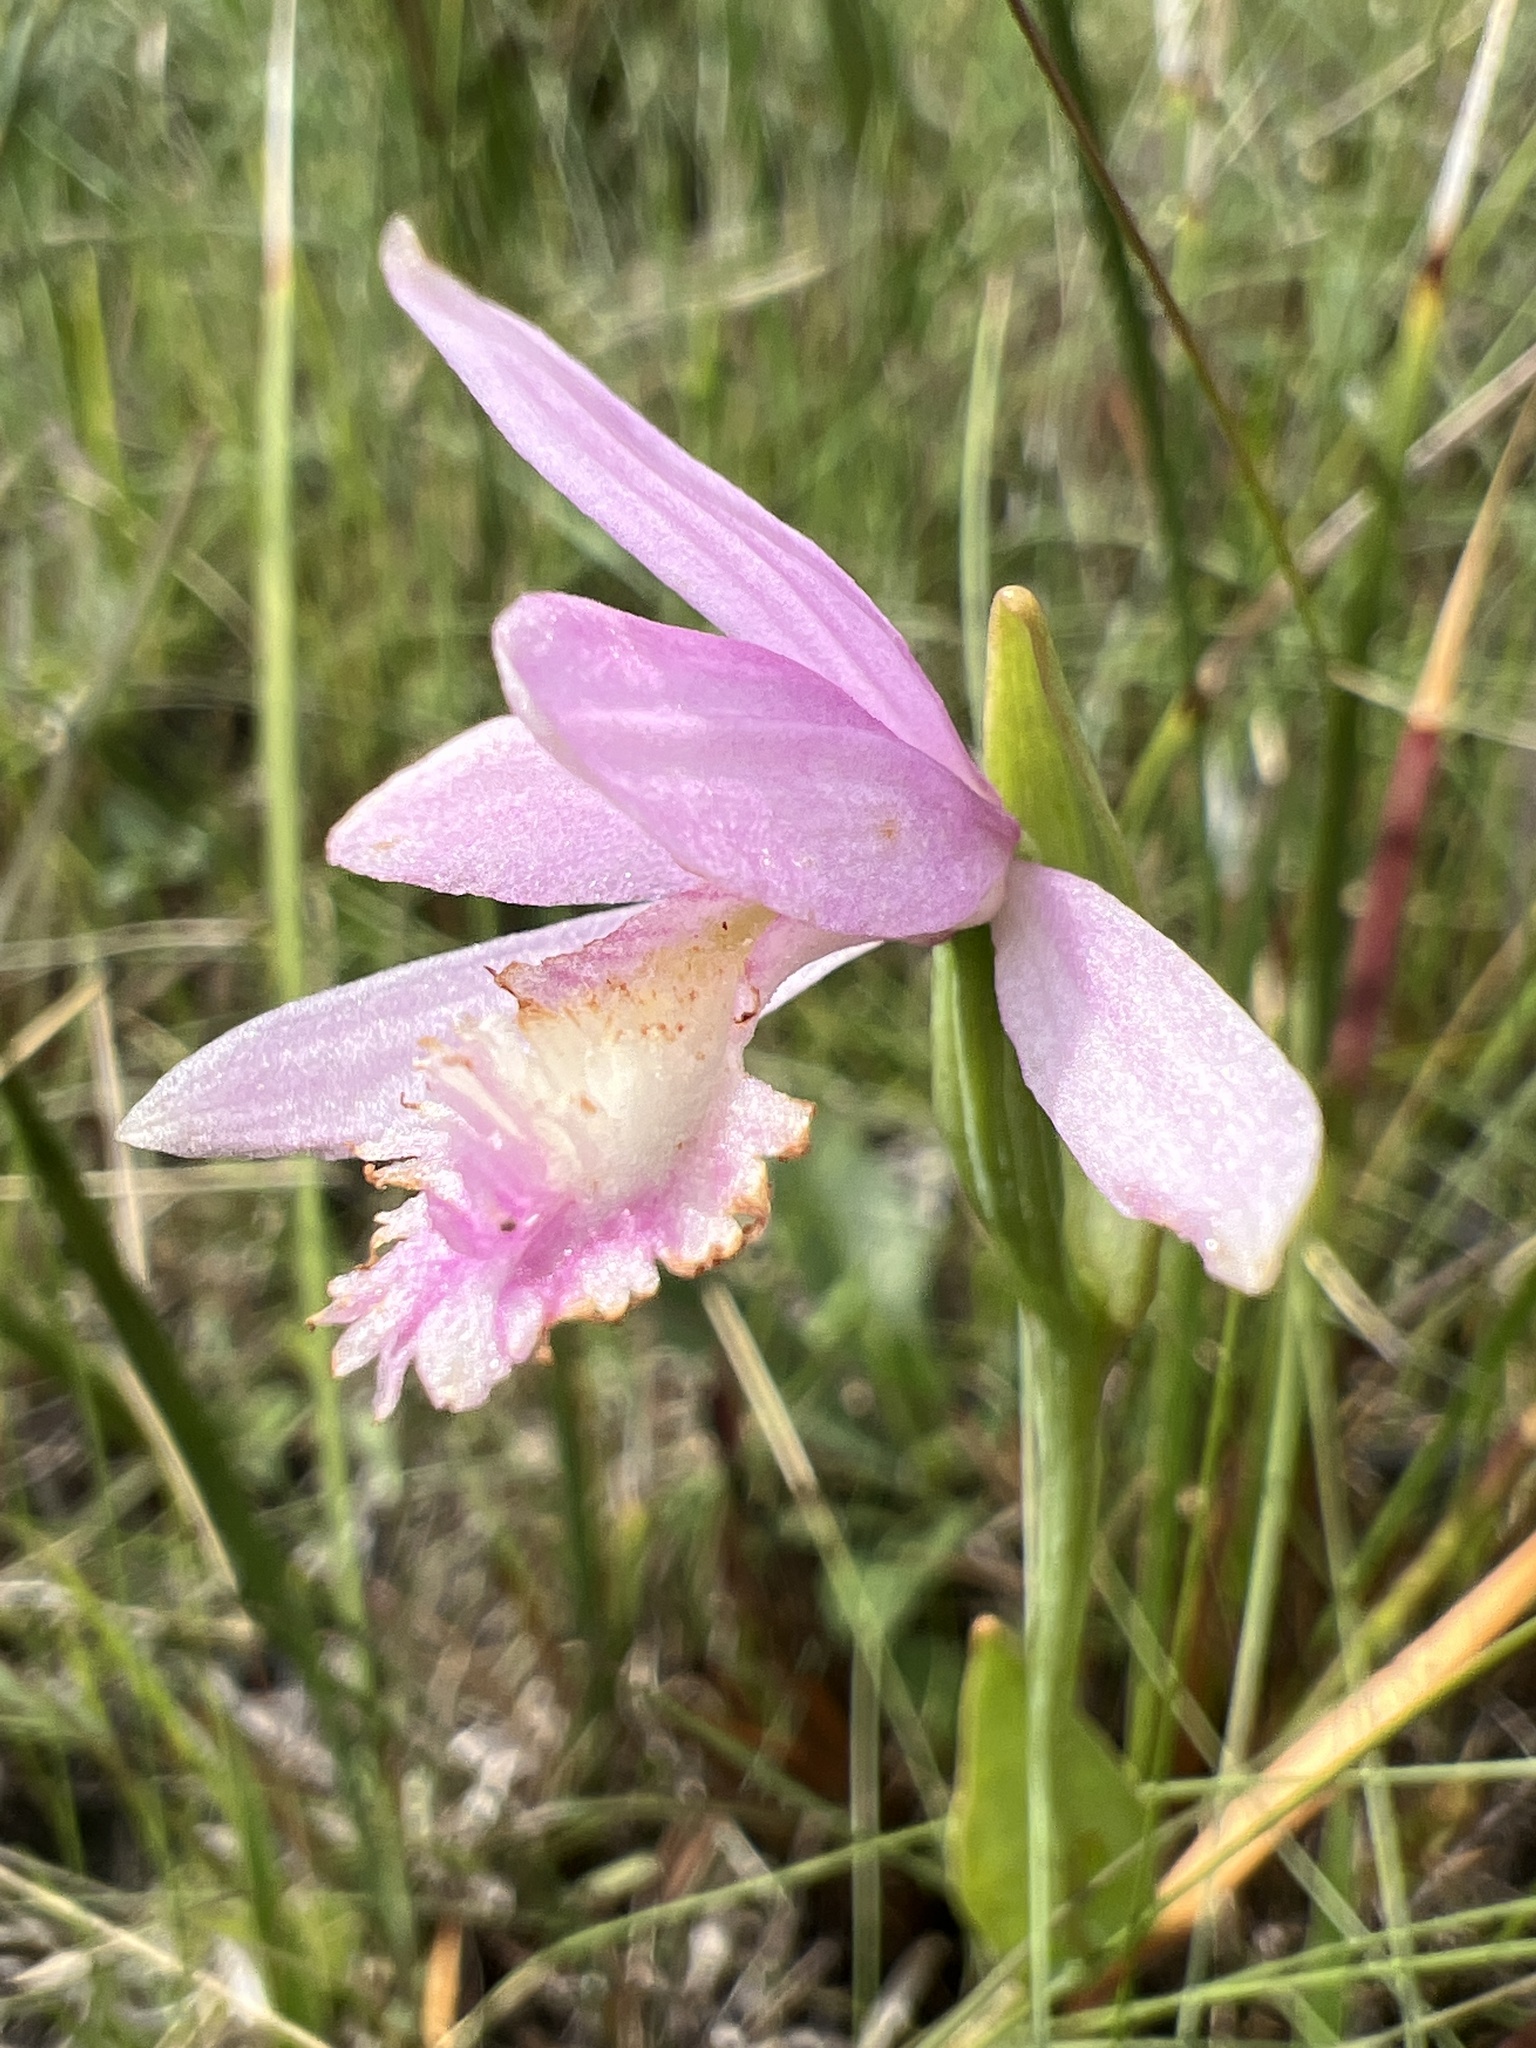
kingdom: Plantae
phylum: Tracheophyta
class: Liliopsida
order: Asparagales
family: Orchidaceae
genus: Pogonia
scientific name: Pogonia ophioglossoides
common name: Rose pogonia
